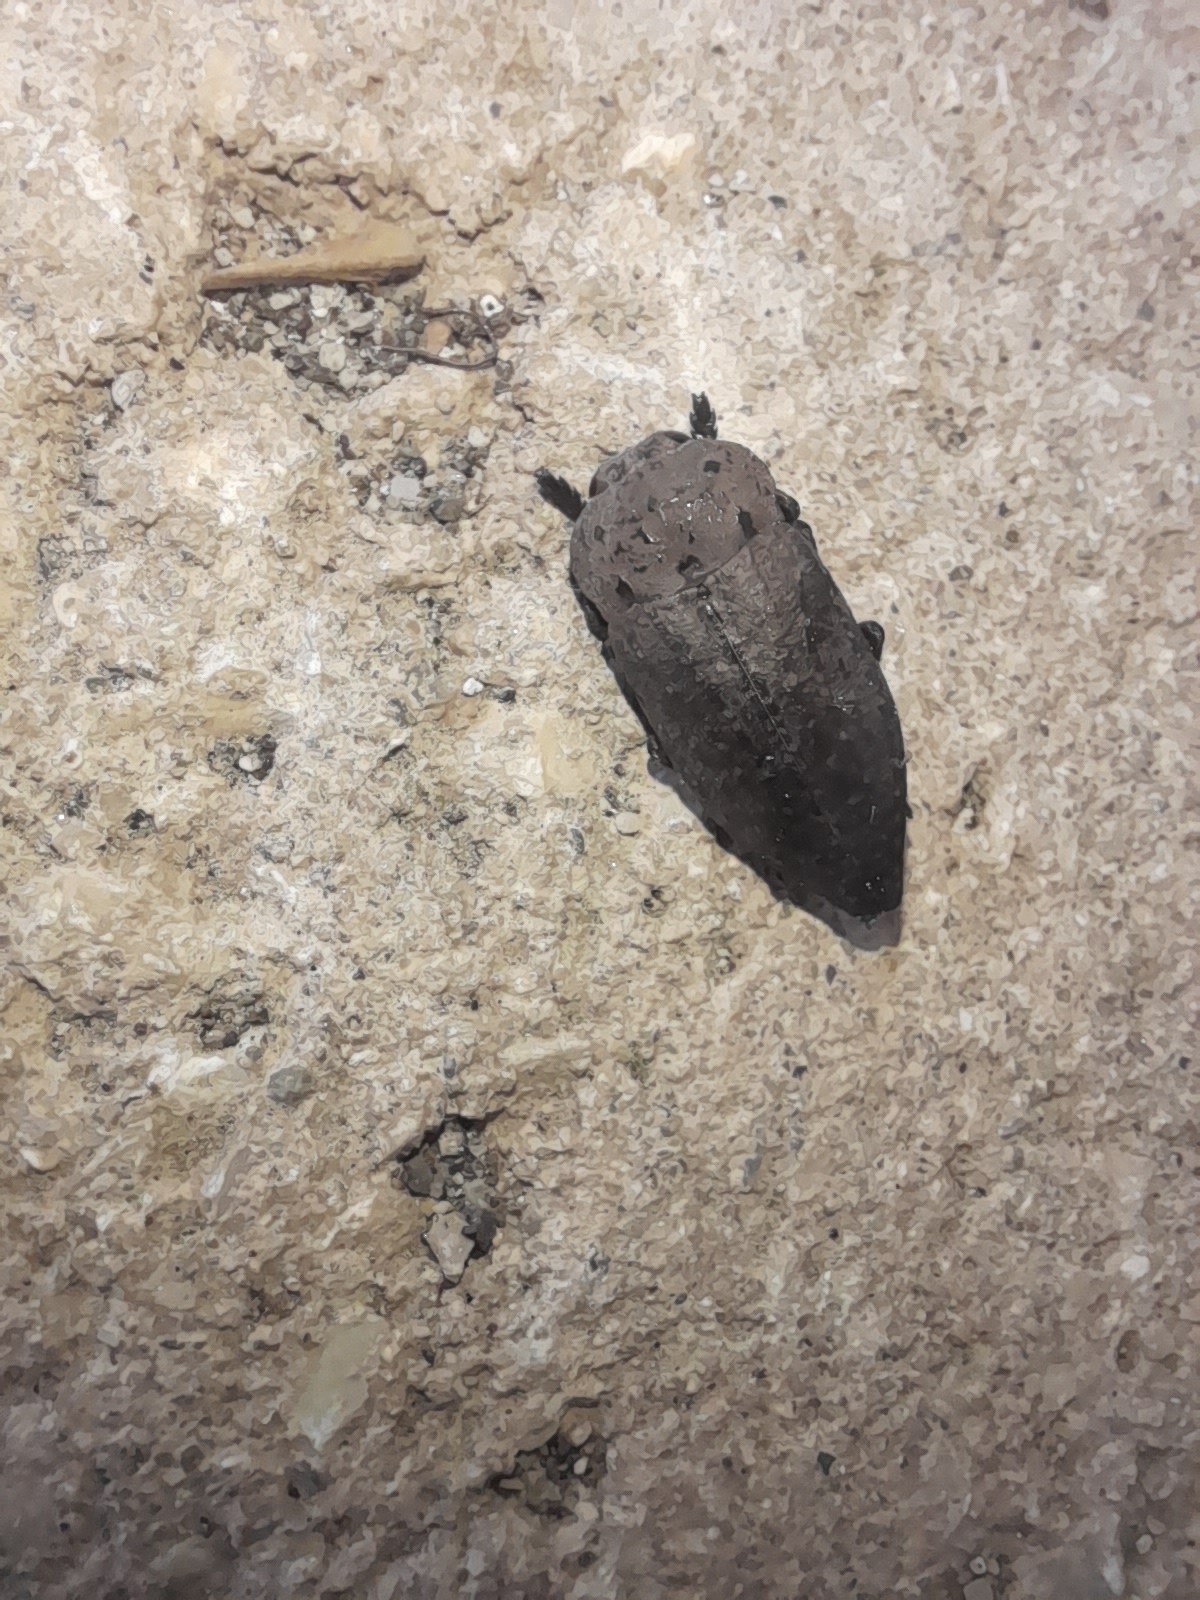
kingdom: Animalia
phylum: Arthropoda
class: Insecta
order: Coleoptera
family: Buprestidae
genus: Capnodis
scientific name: Capnodis tenebricosa
